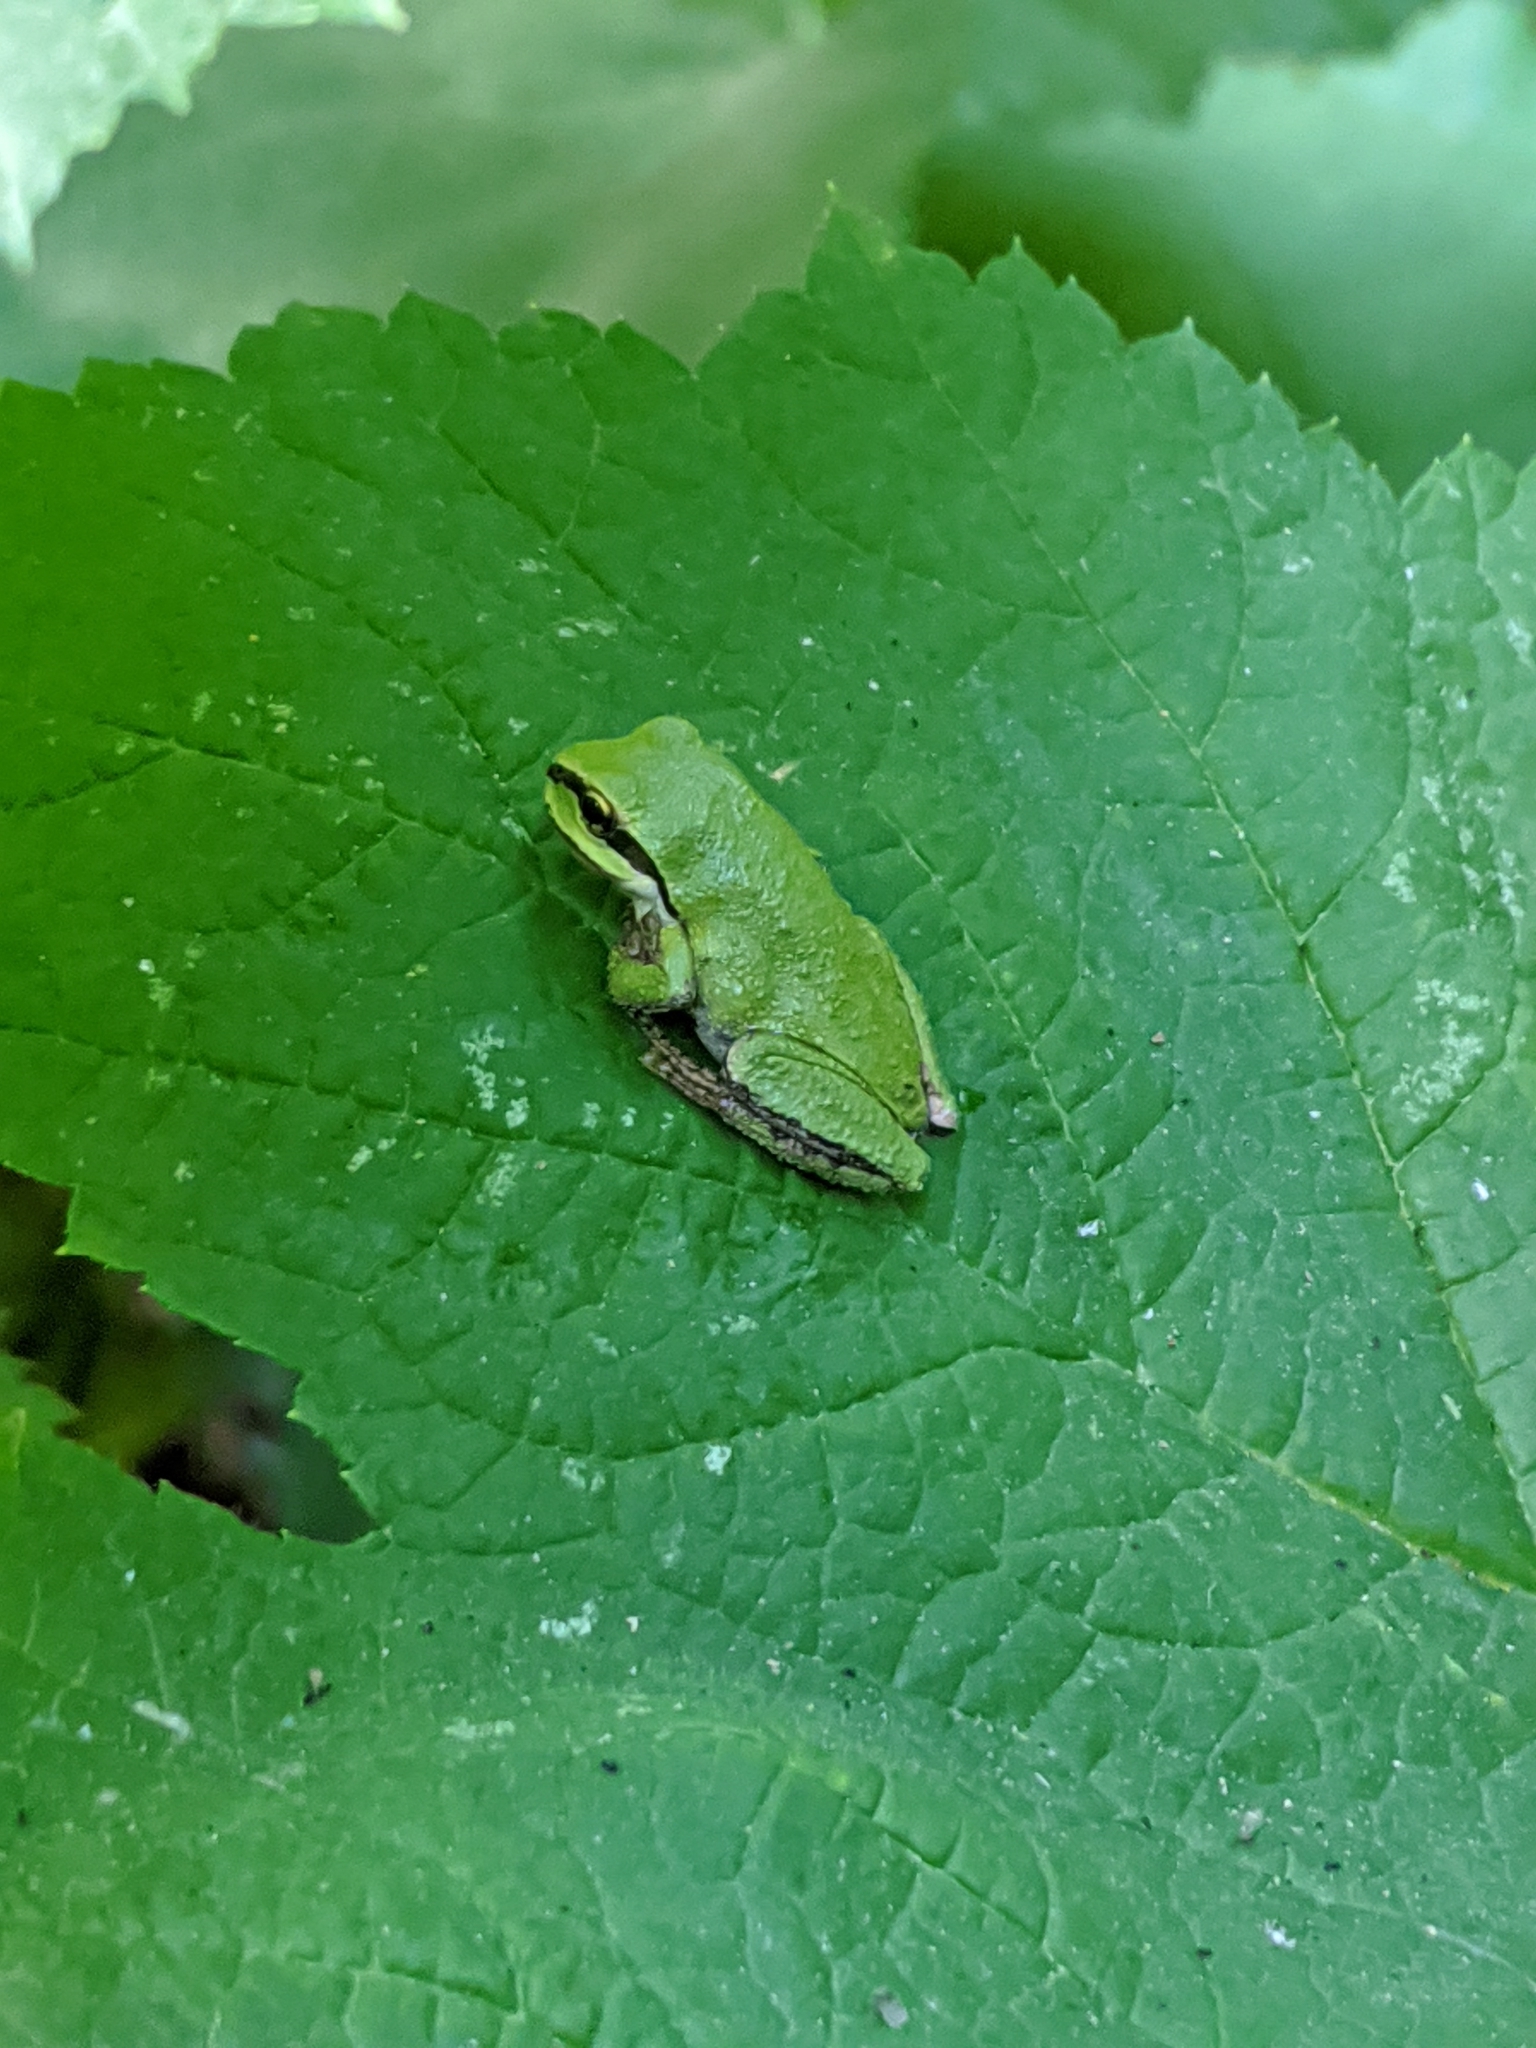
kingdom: Animalia
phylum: Chordata
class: Amphibia
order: Anura
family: Hylidae
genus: Pseudacris
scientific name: Pseudacris regilla
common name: Pacific chorus frog
